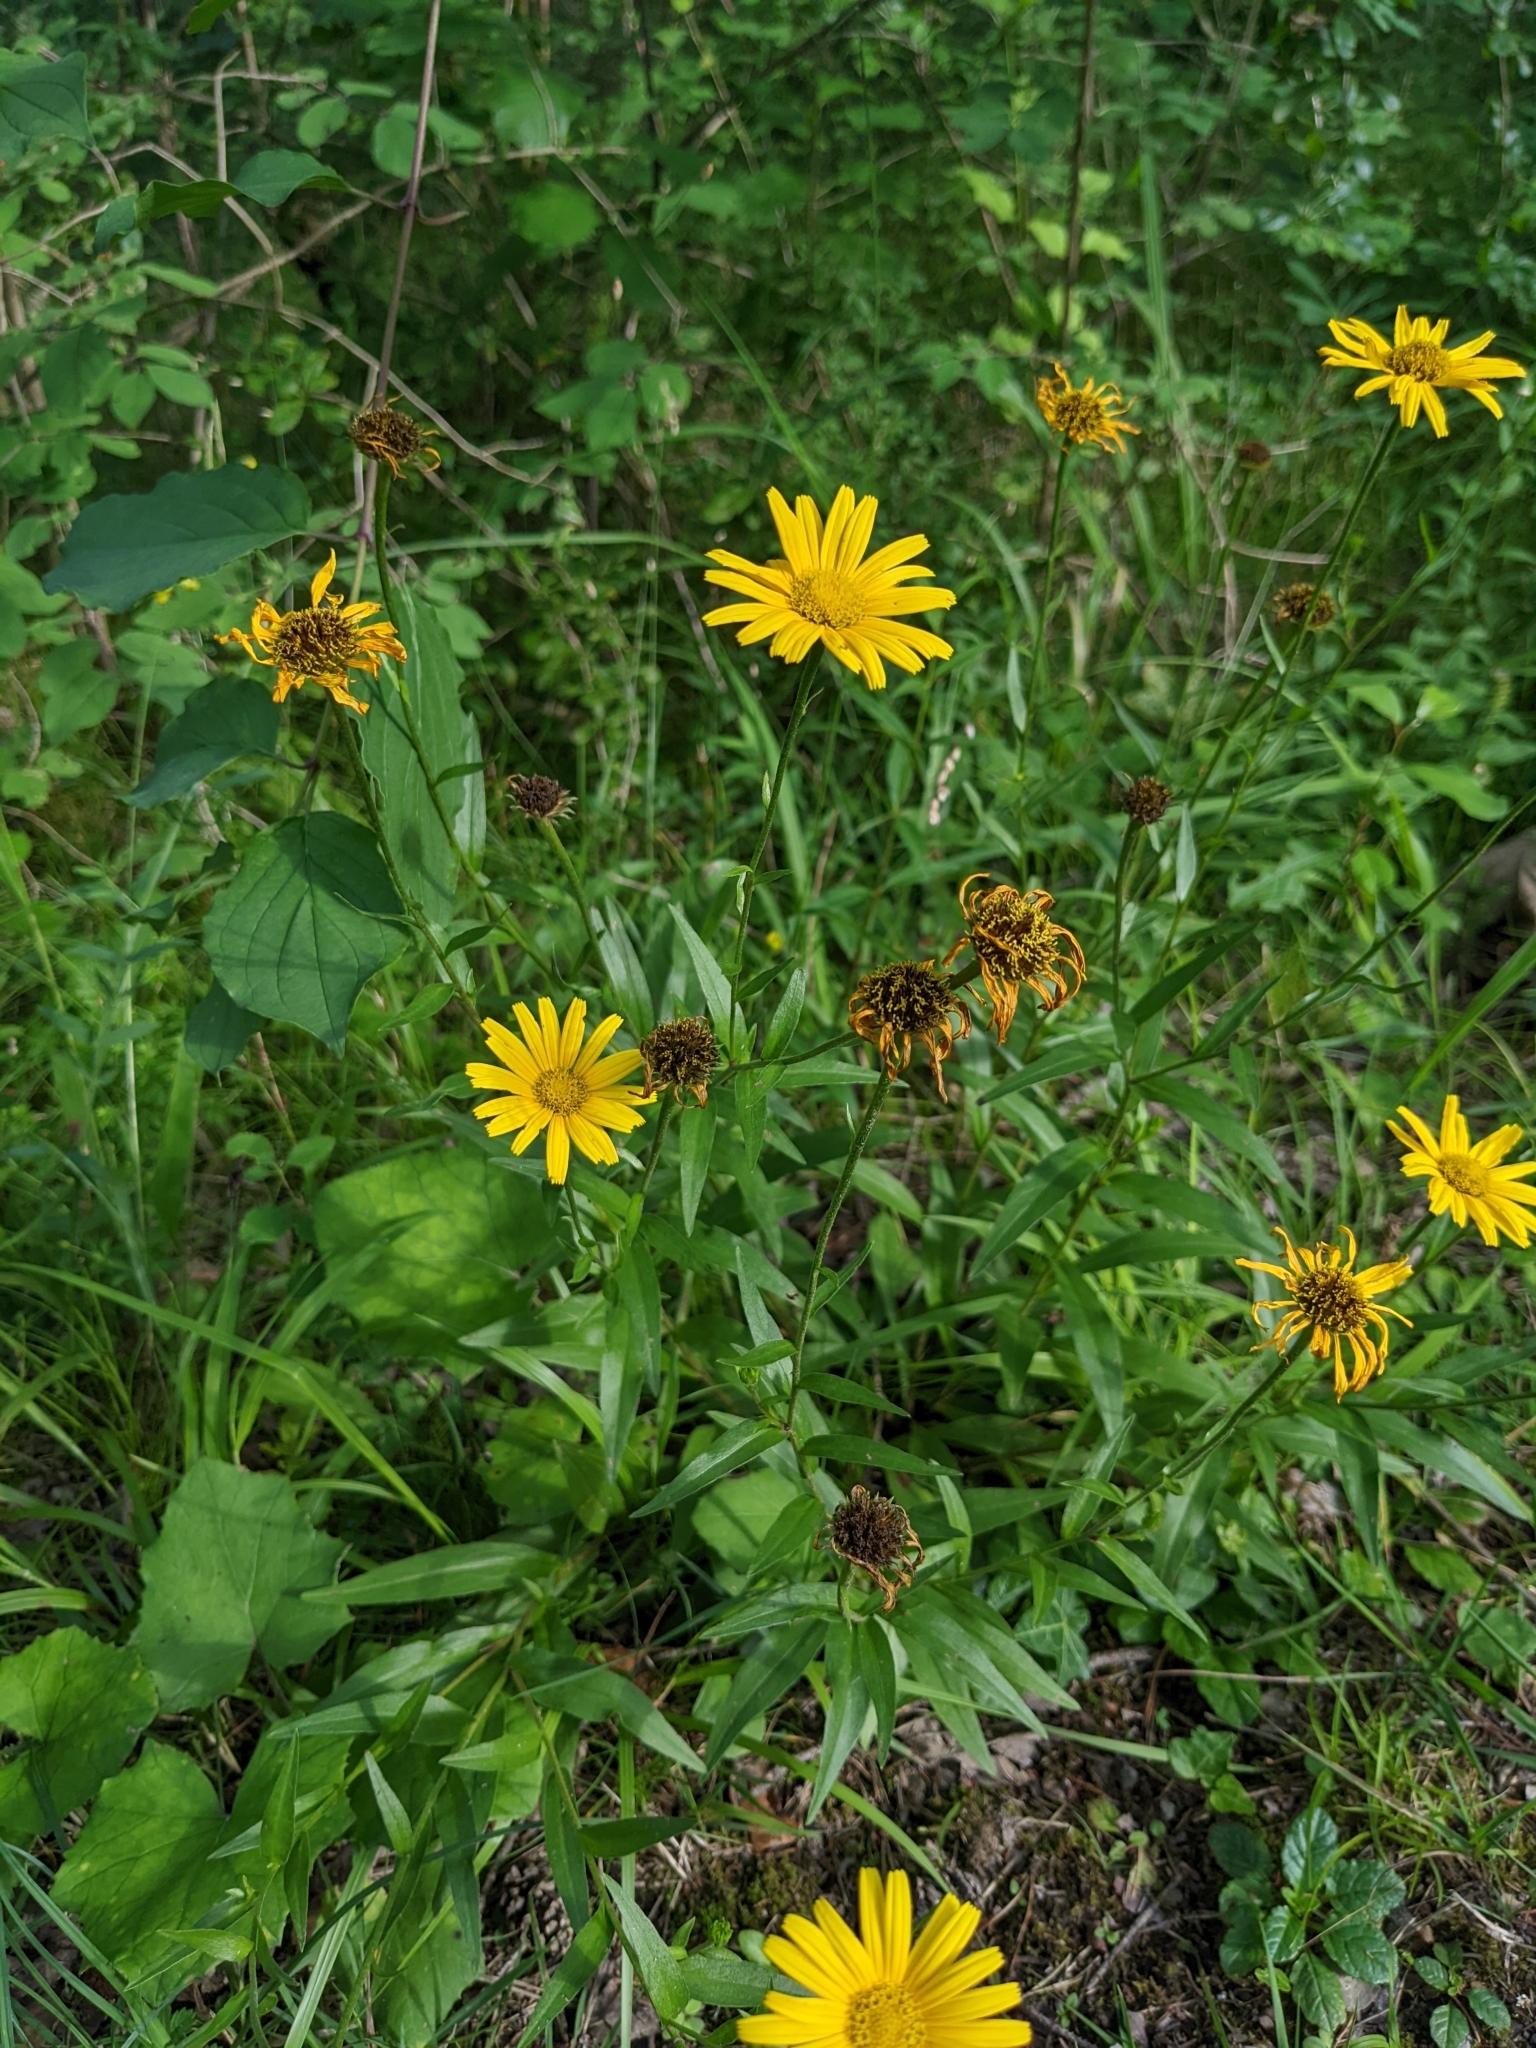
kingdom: Plantae
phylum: Tracheophyta
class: Magnoliopsida
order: Asterales
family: Asteraceae
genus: Buphthalmum
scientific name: Buphthalmum salicifolium
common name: Willow-leaved yellow-oxeye
